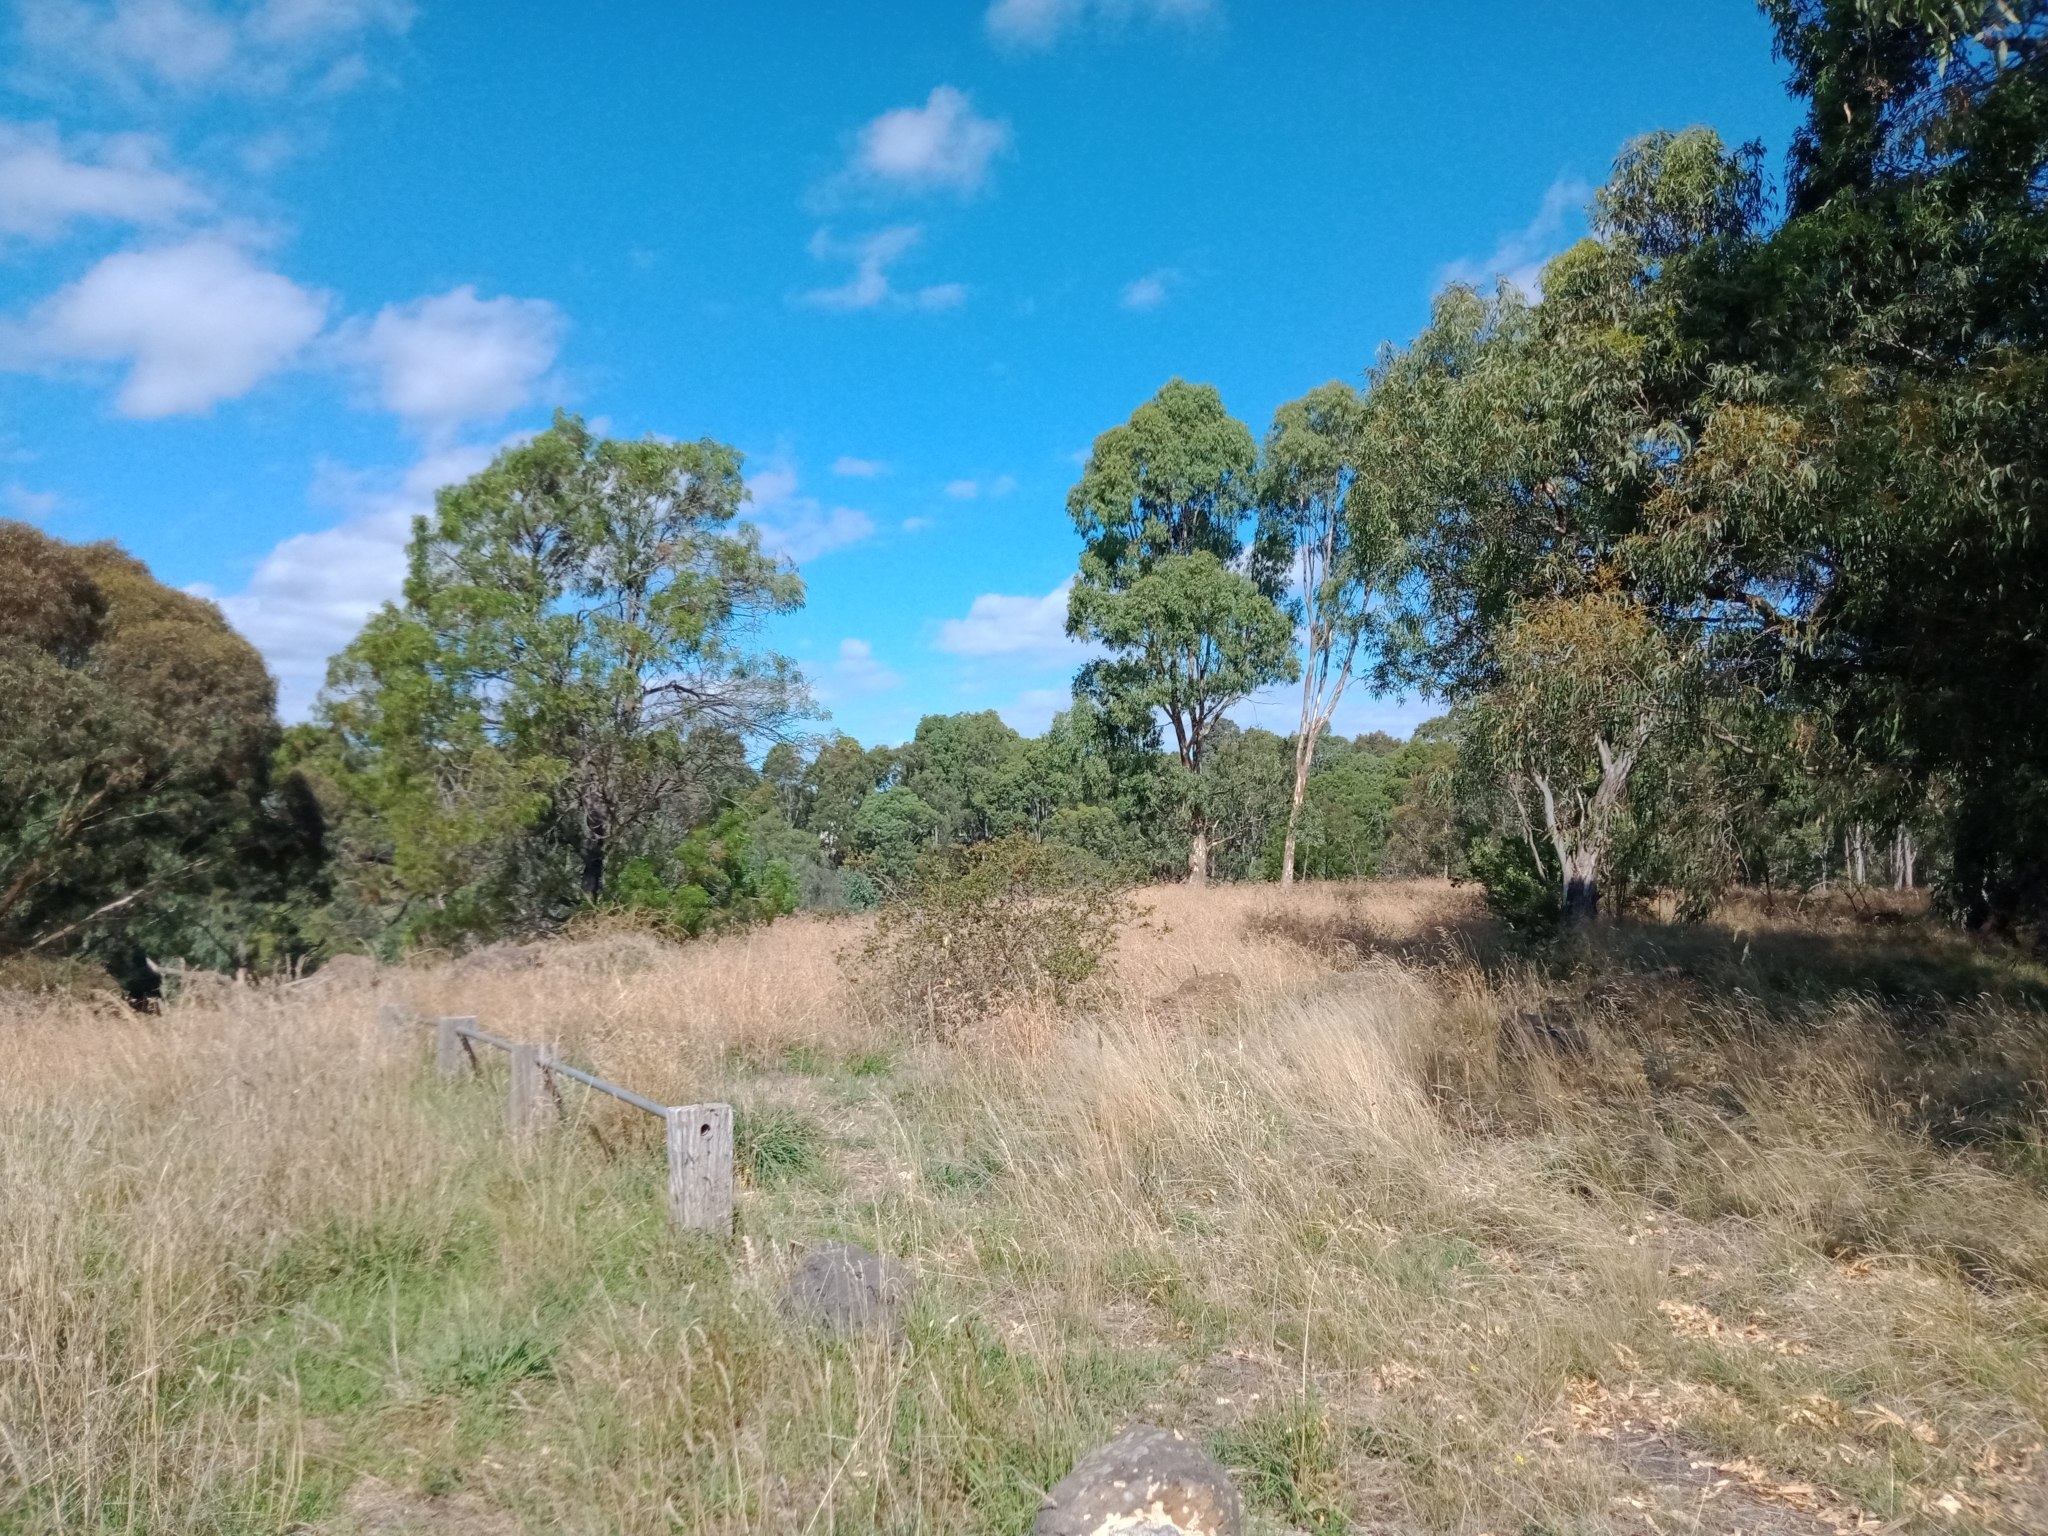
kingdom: Plantae
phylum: Tracheophyta
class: Liliopsida
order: Poales
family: Poaceae
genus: Themeda
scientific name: Themeda triandra
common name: Kangaroo grass
